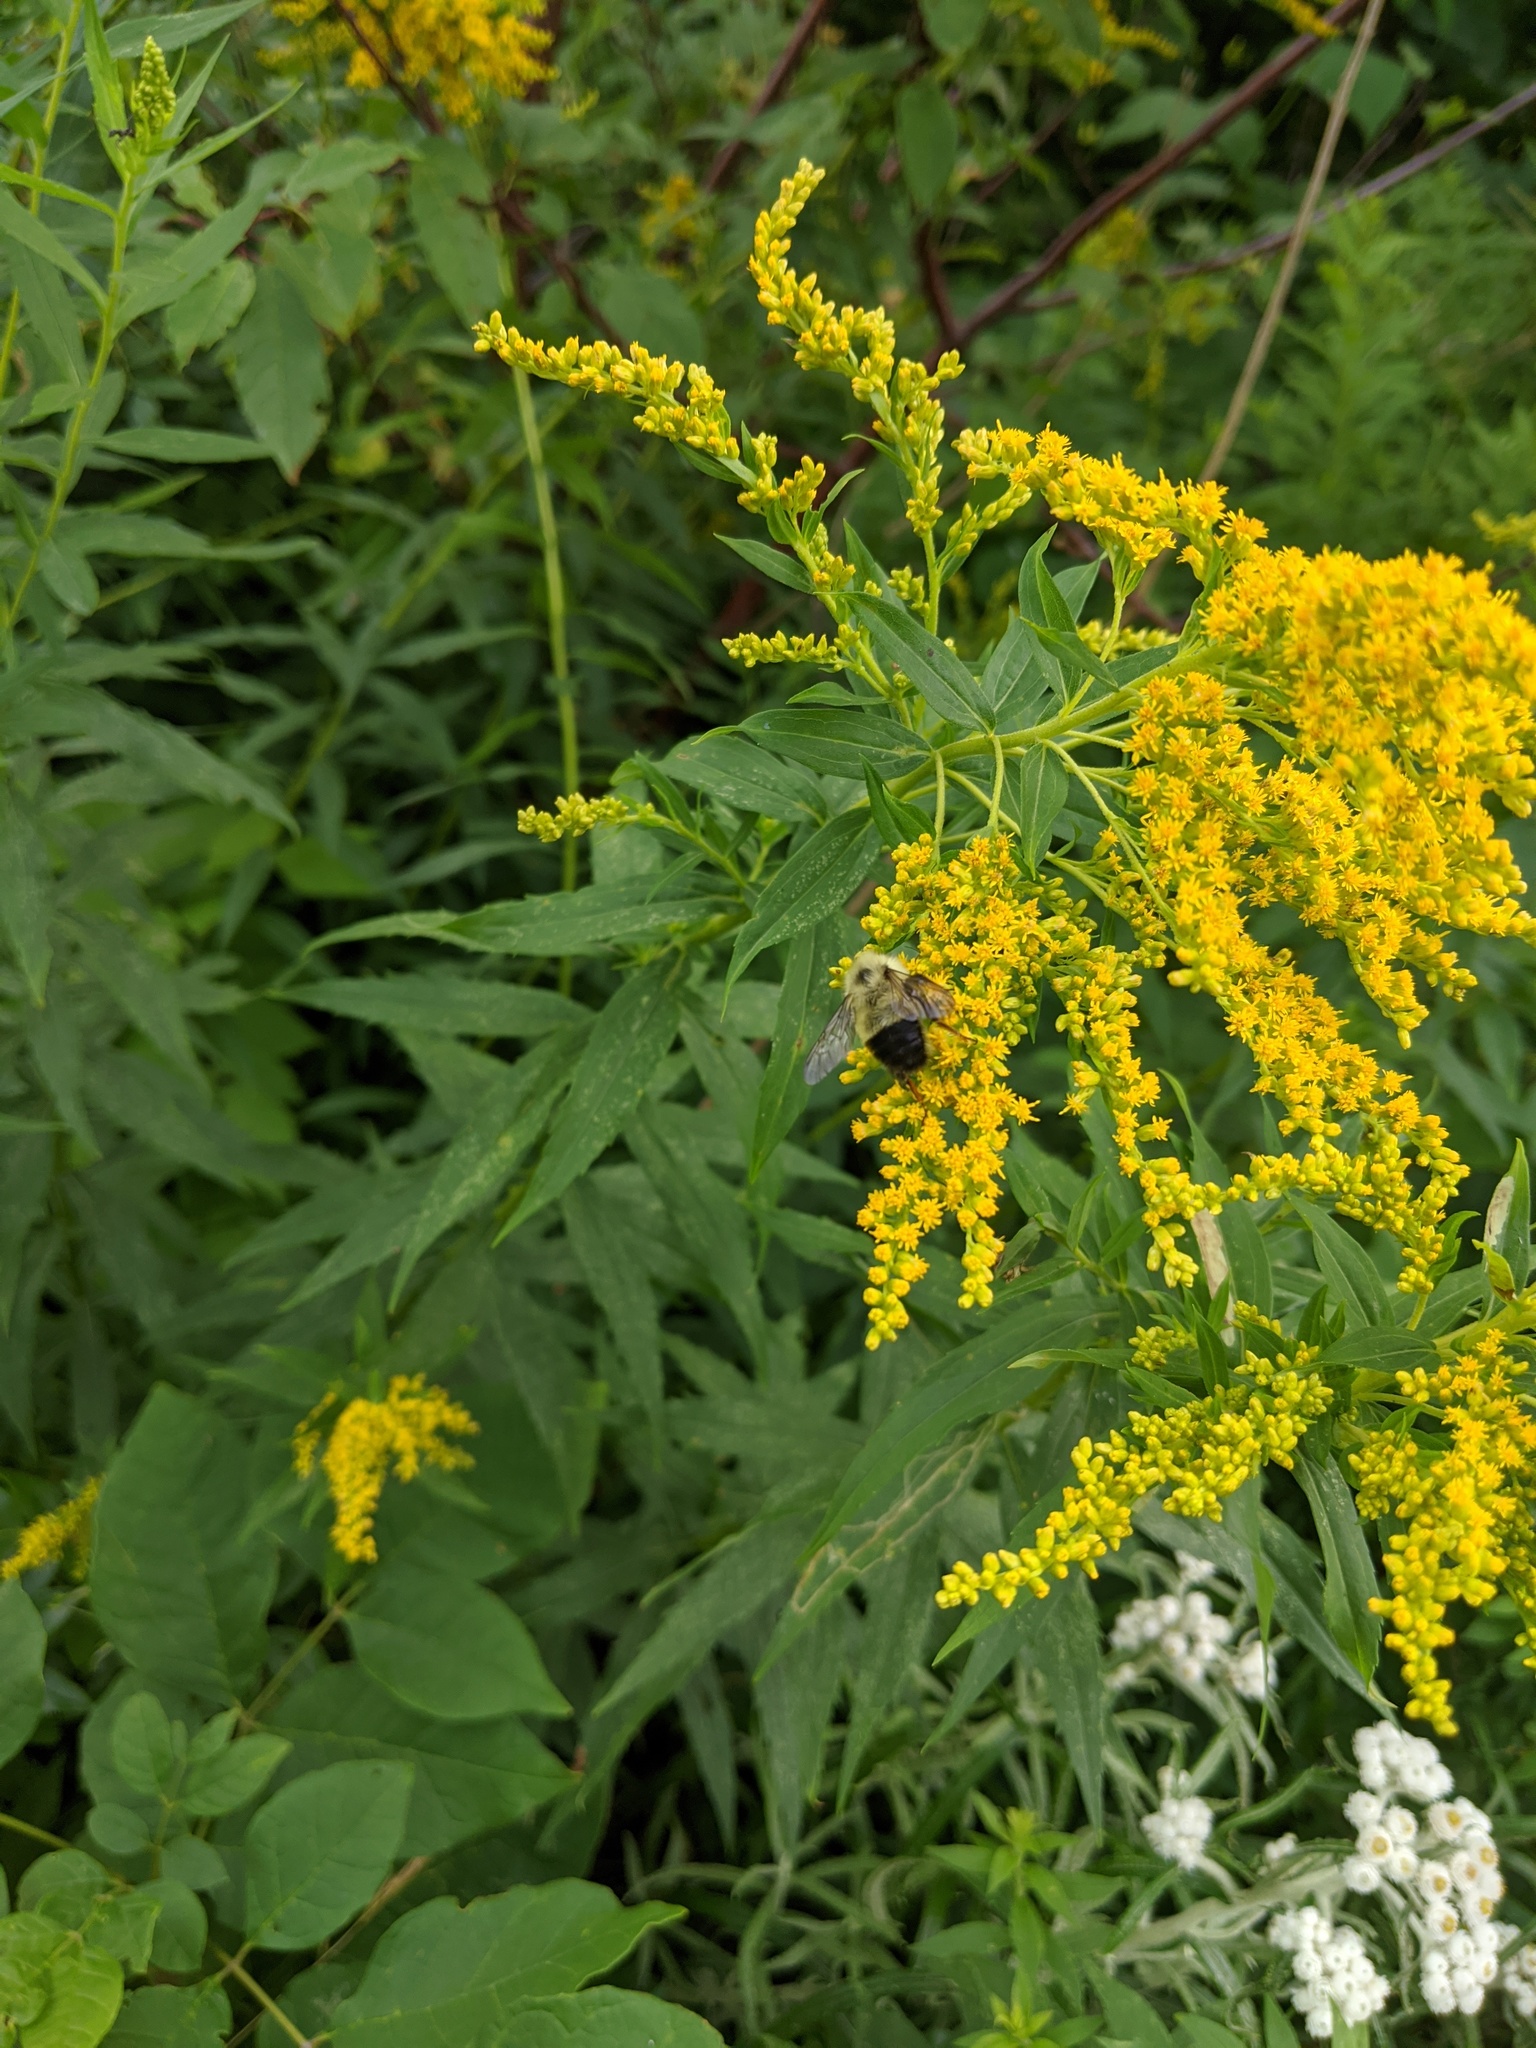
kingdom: Animalia
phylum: Arthropoda
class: Insecta
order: Hymenoptera
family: Apidae
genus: Pyrobombus
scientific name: Pyrobombus
